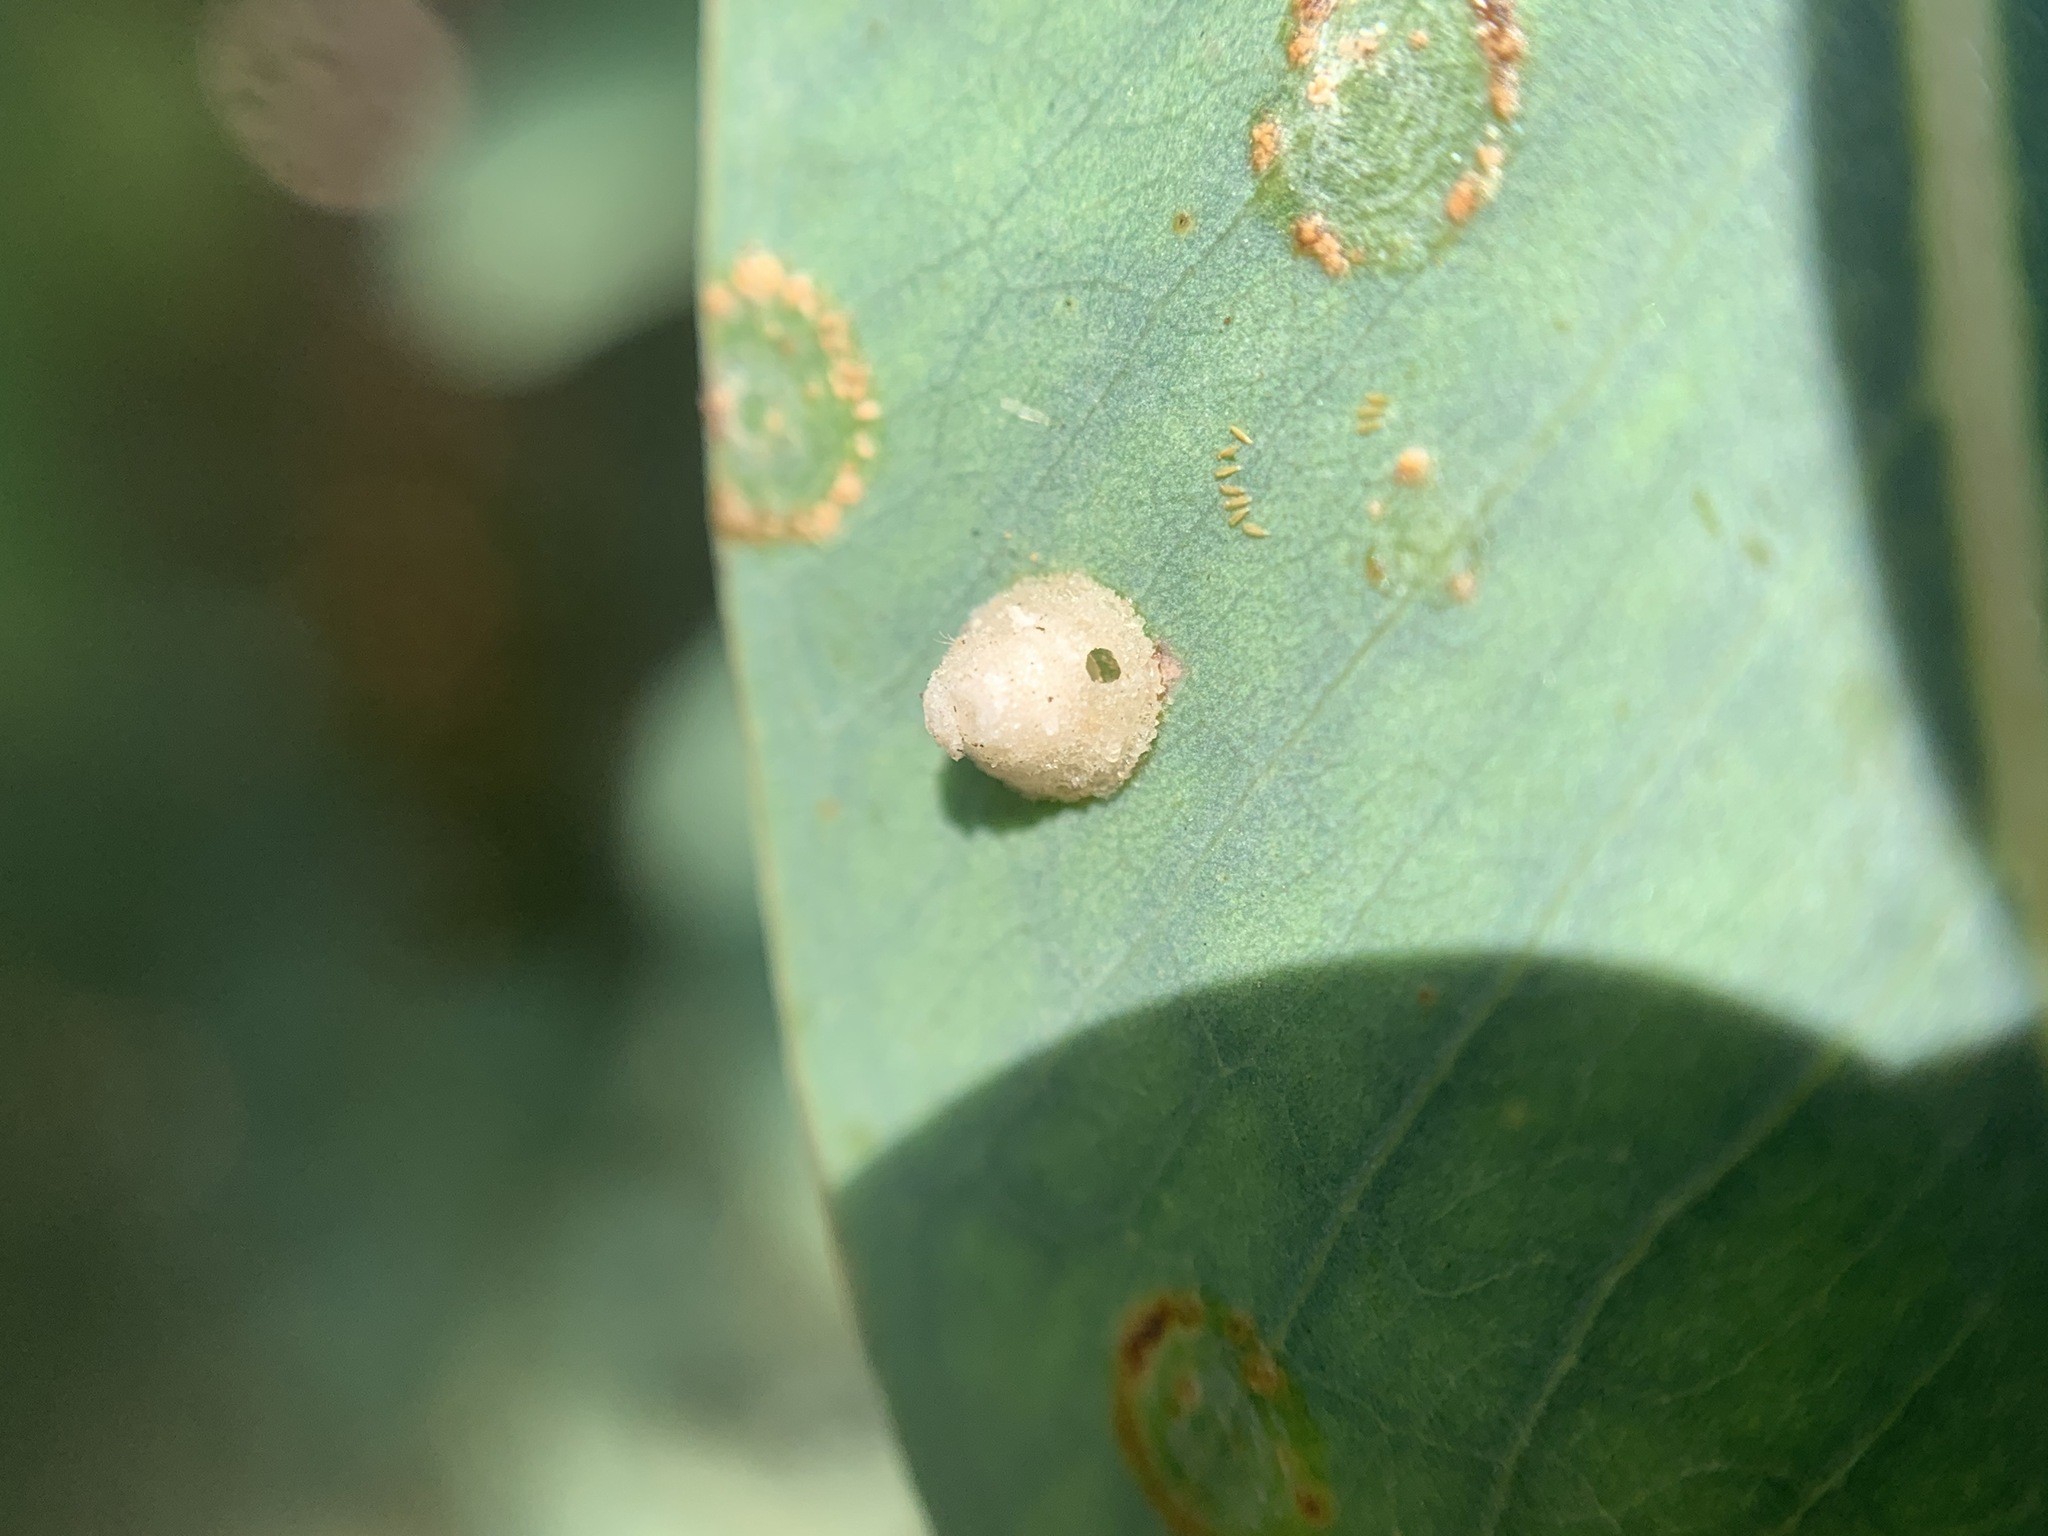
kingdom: Animalia
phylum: Arthropoda
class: Insecta
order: Hemiptera
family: Aphalaridae
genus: Glycaspis
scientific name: Glycaspis brimblecombei
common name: Red gum lerp psyllid
